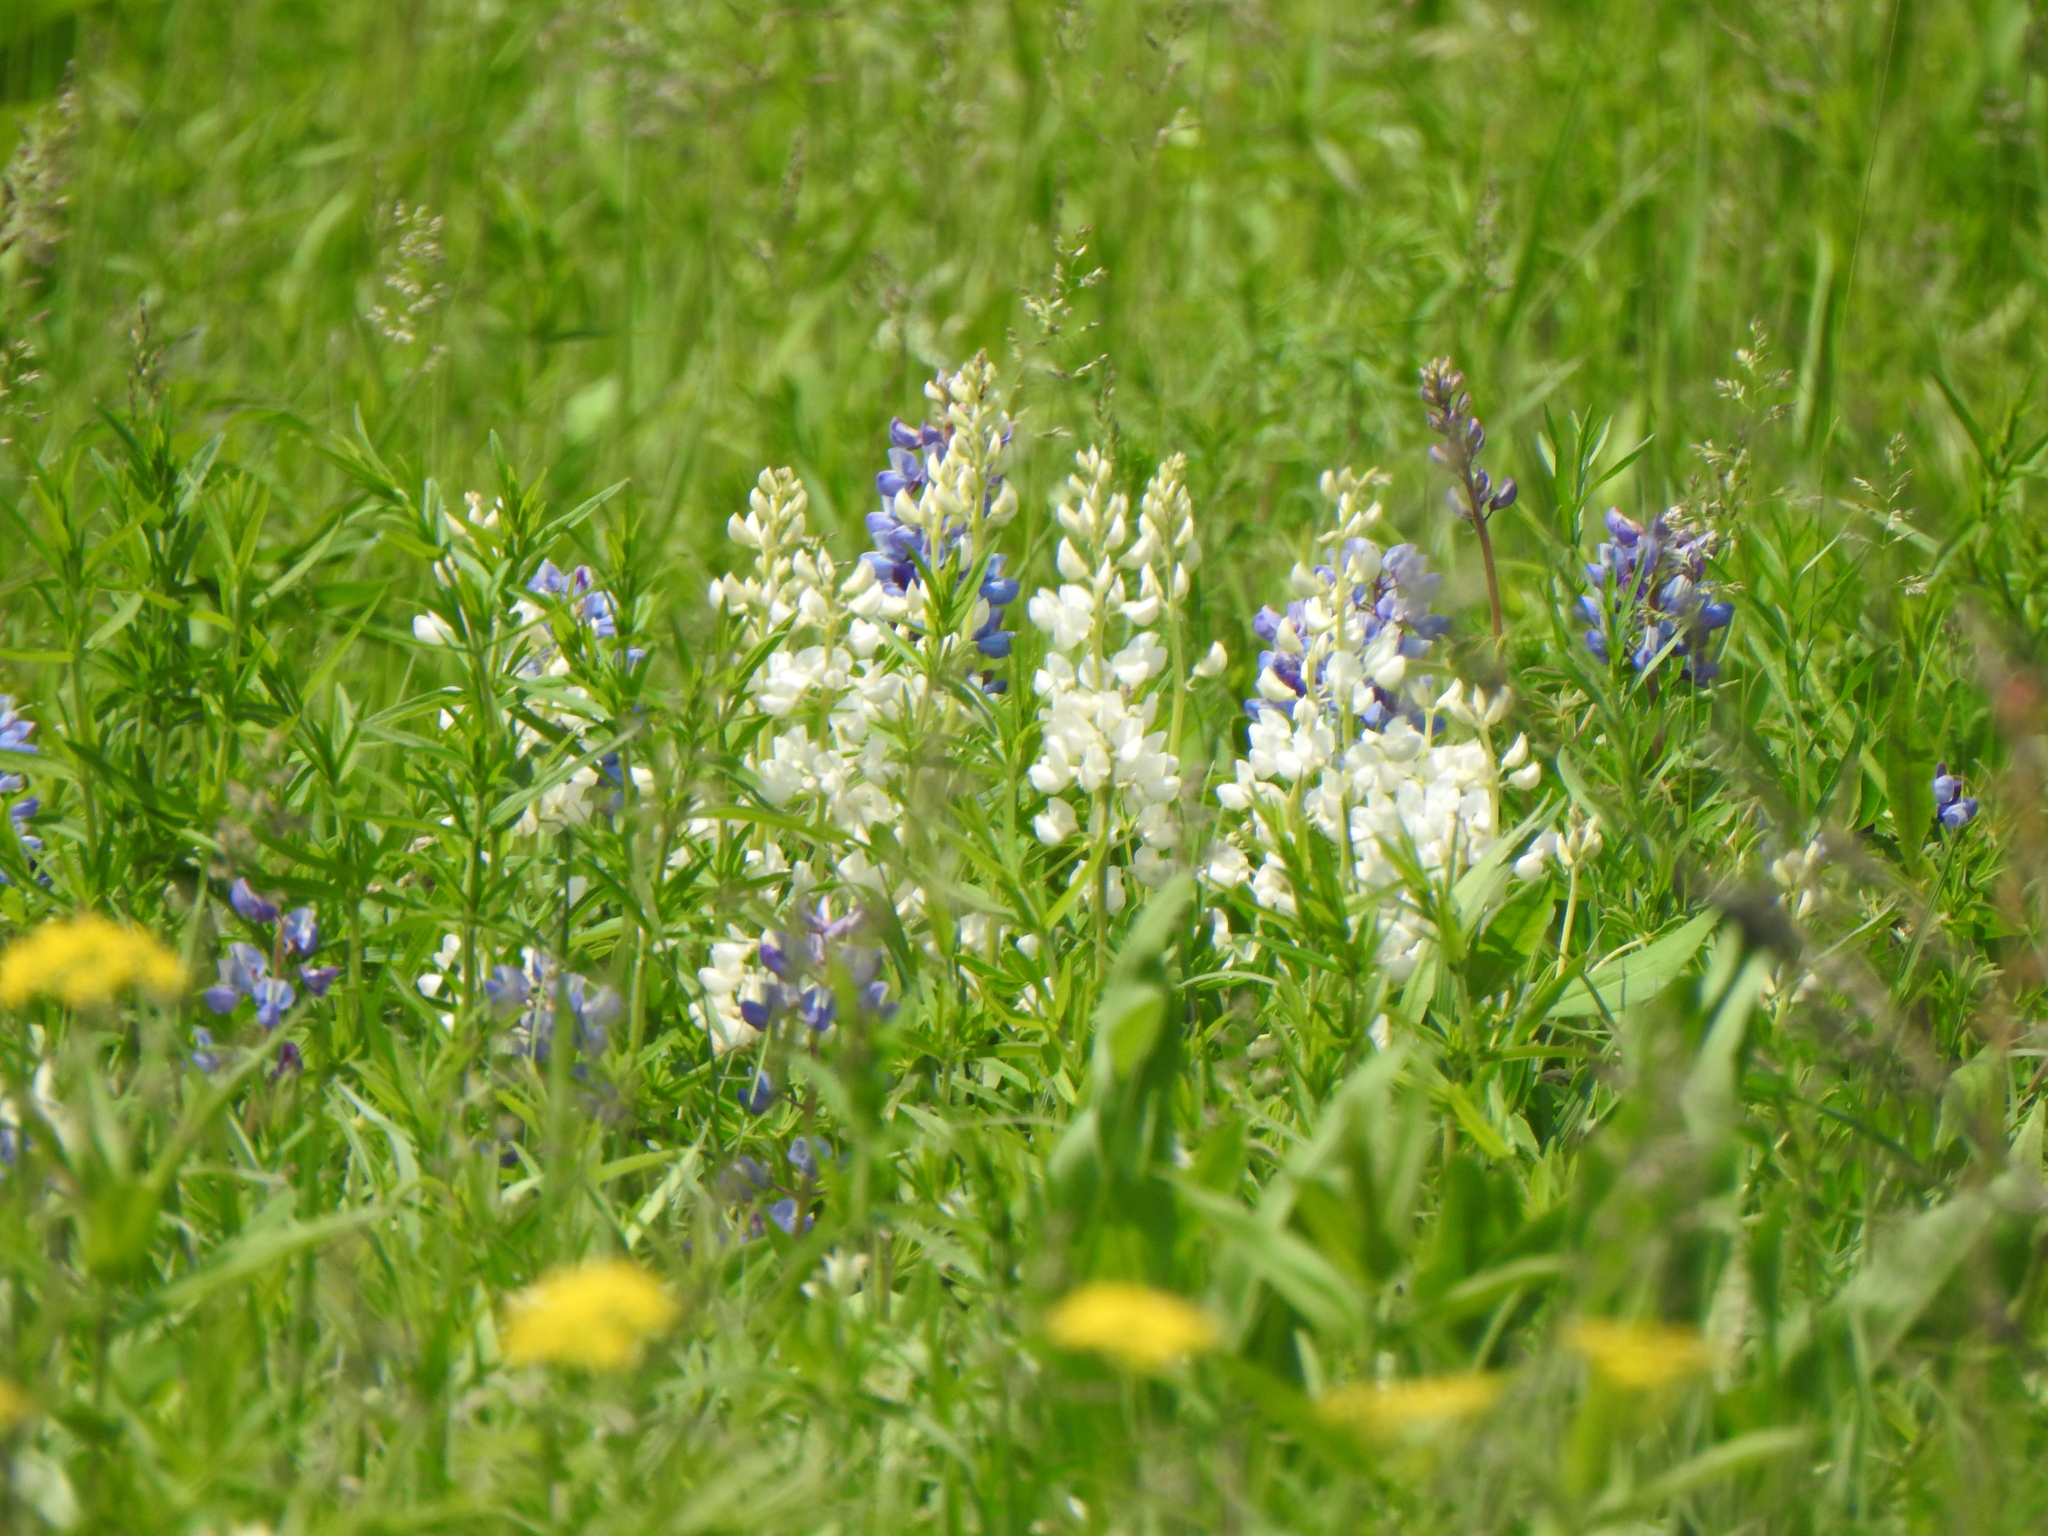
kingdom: Plantae
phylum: Tracheophyta
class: Magnoliopsida
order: Fabales
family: Fabaceae
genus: Lupinus
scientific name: Lupinus perennis
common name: Sundial lupine
